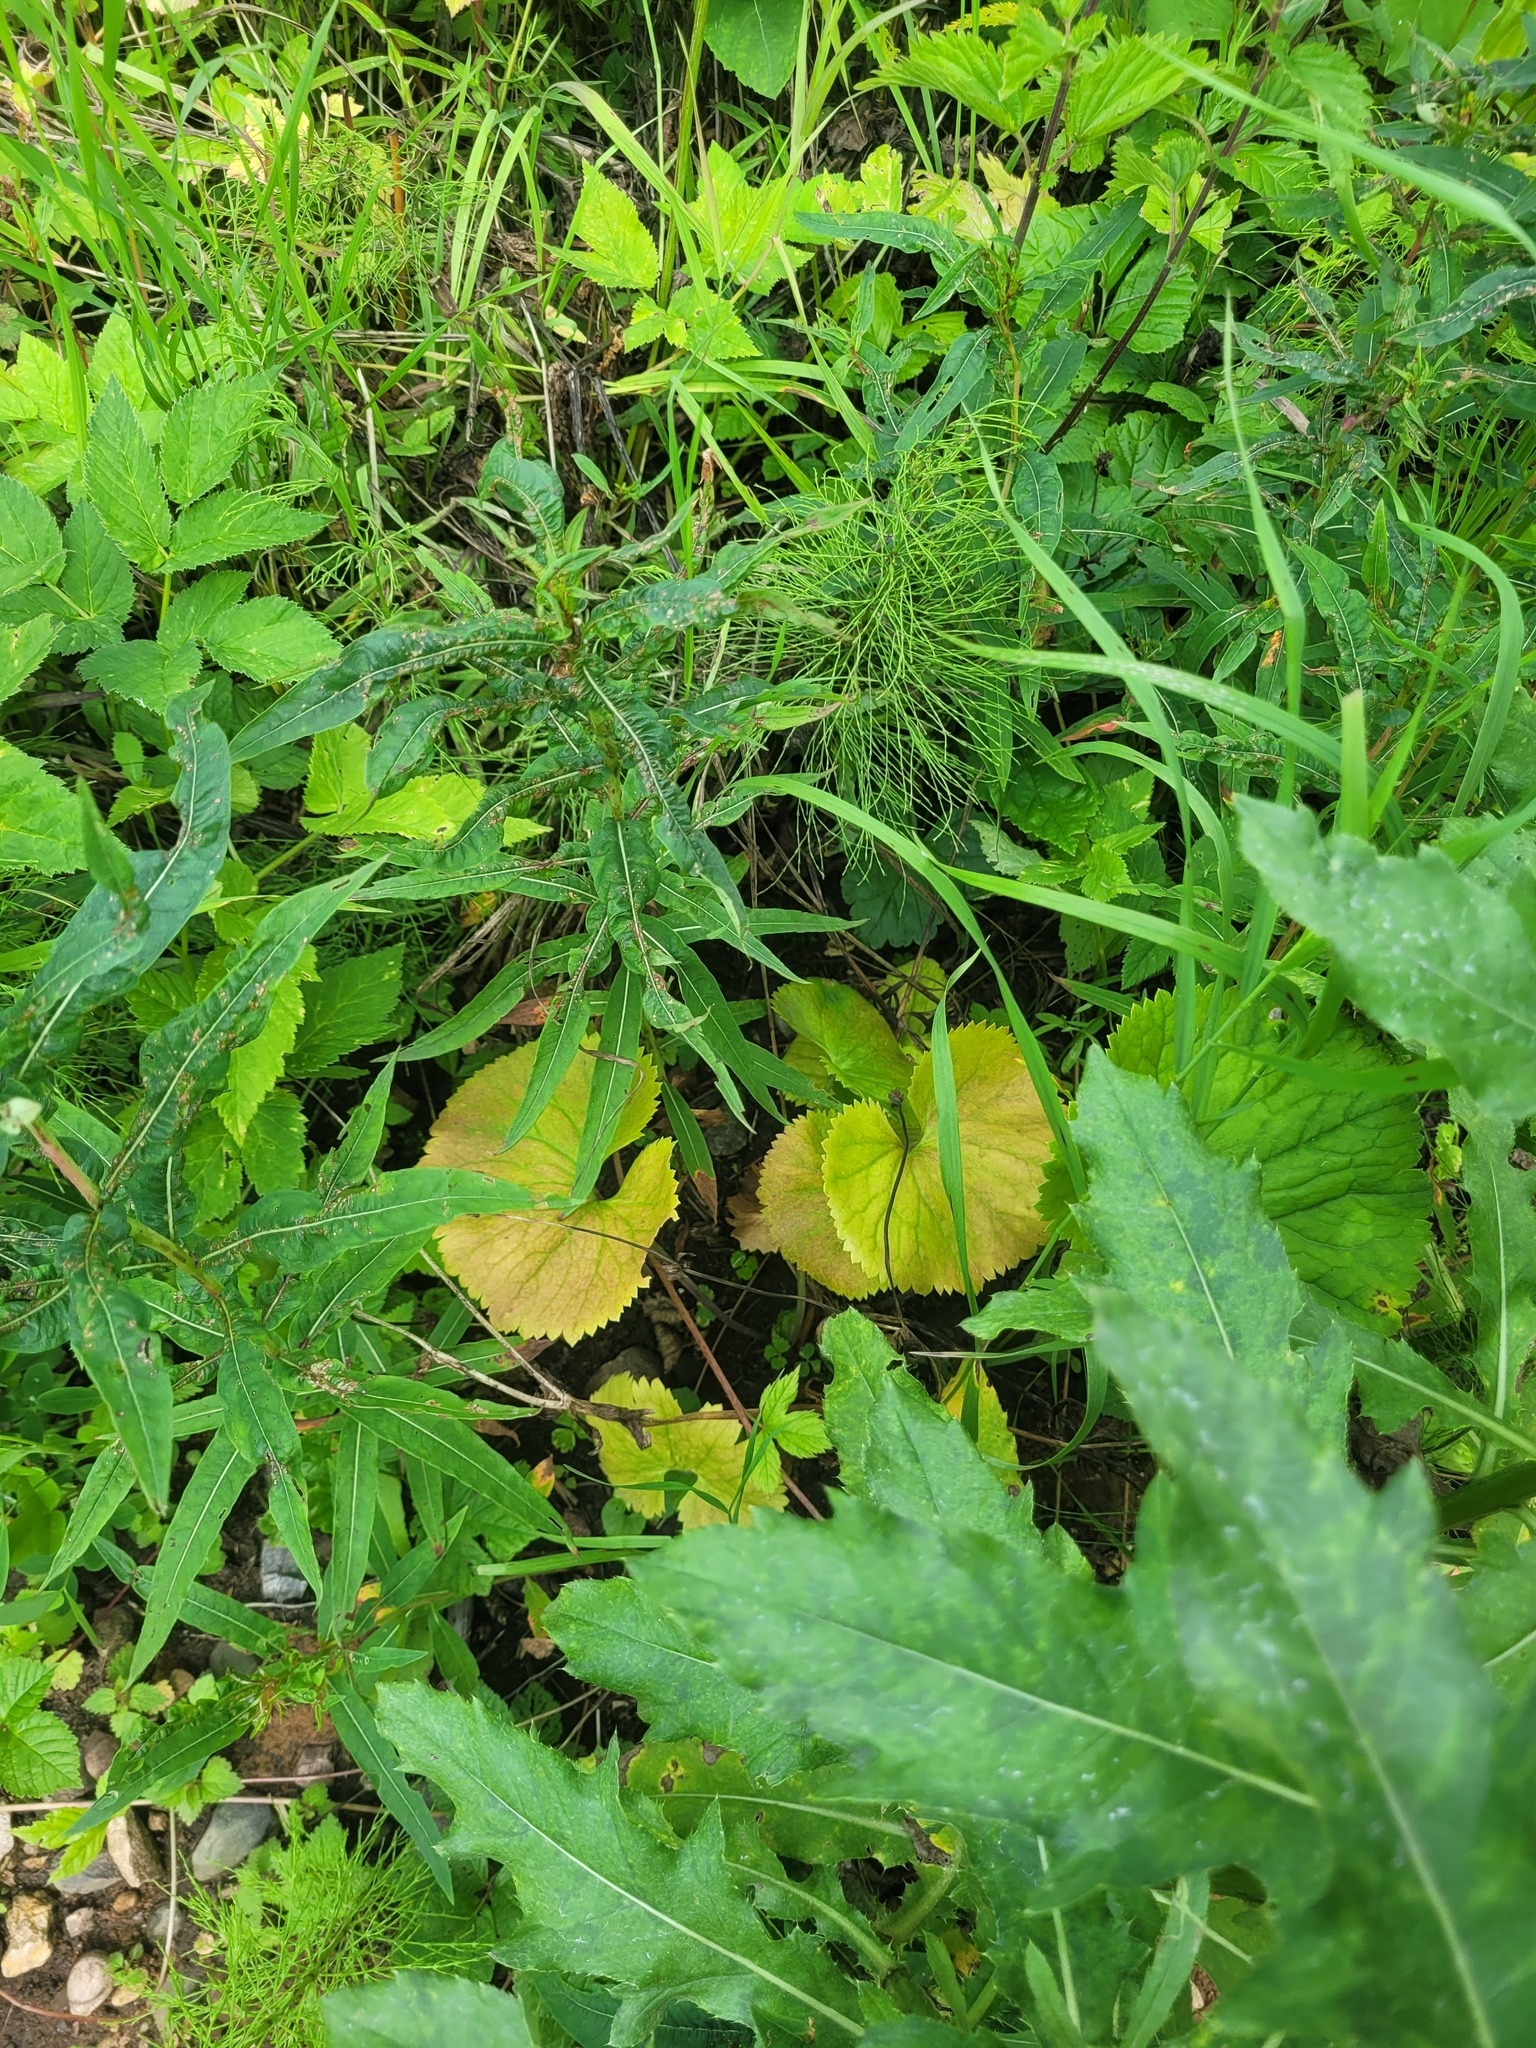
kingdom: Plantae
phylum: Tracheophyta
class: Magnoliopsida
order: Ranunculales
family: Ranunculaceae
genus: Ranunculus
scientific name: Ranunculus cassubicus
